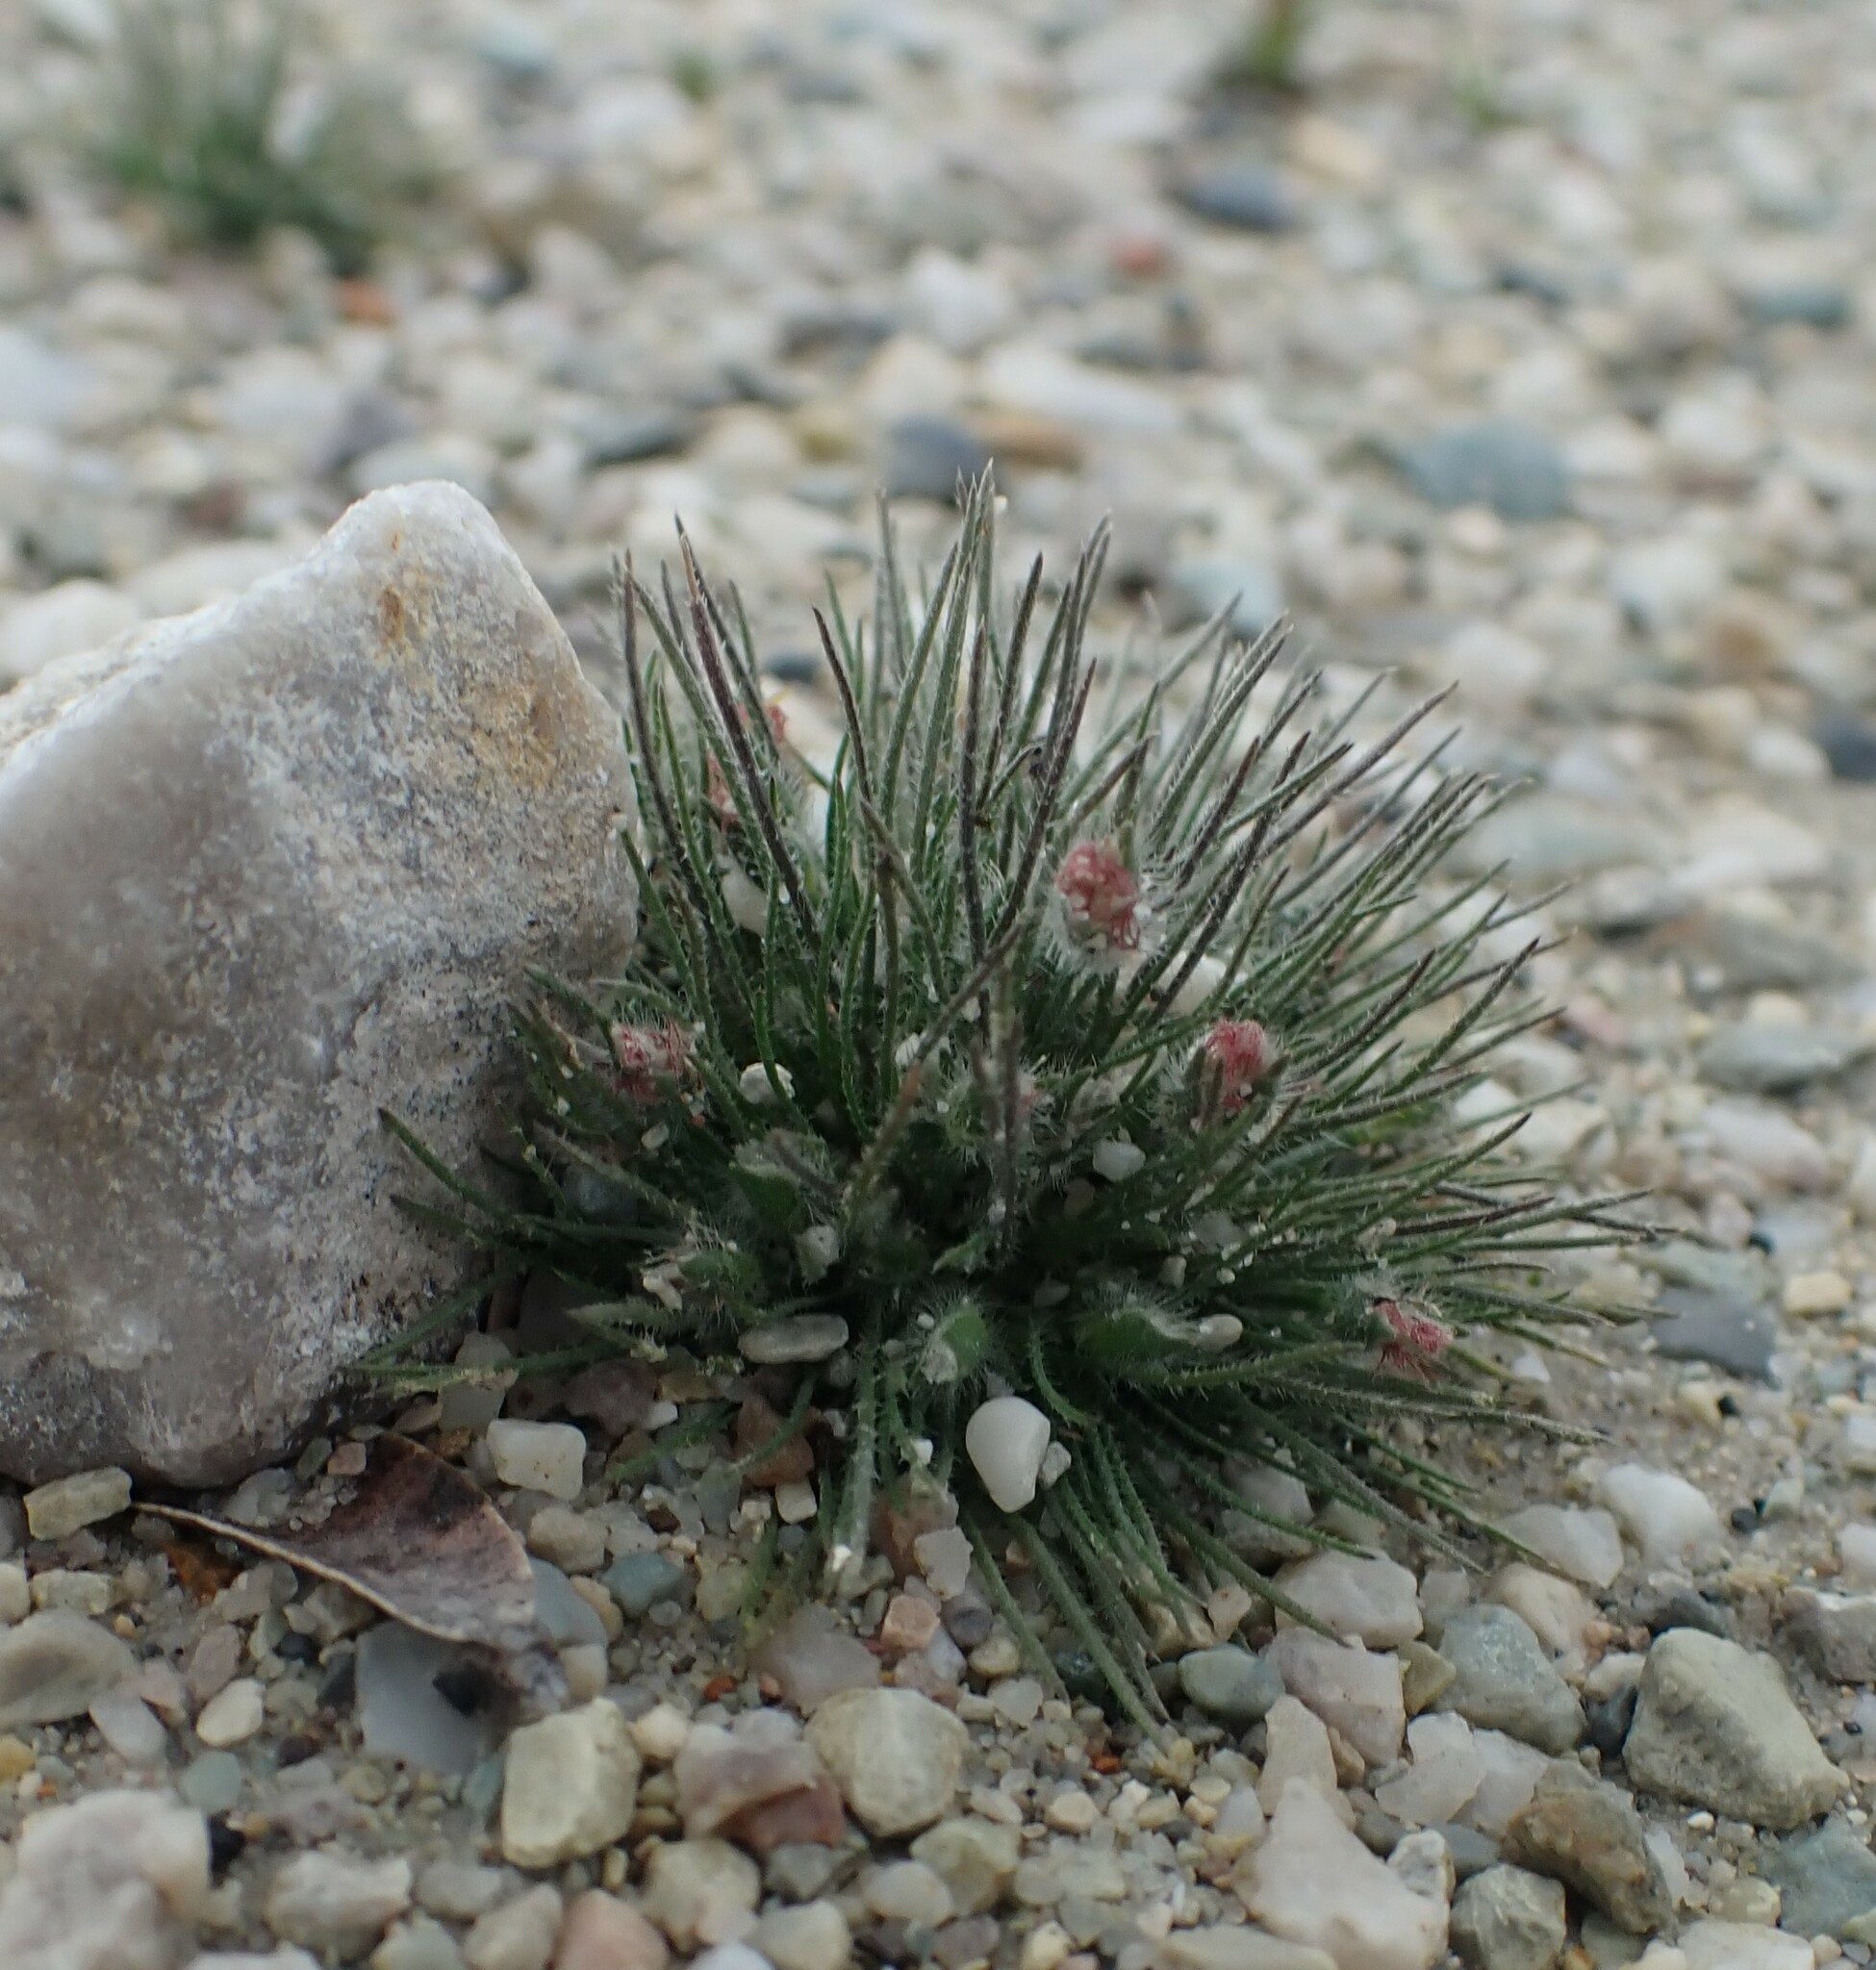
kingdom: Plantae
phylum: Tracheophyta
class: Liliopsida
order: Poales
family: Restionaceae
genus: Centrolepis
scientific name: Centrolepis strigosa
